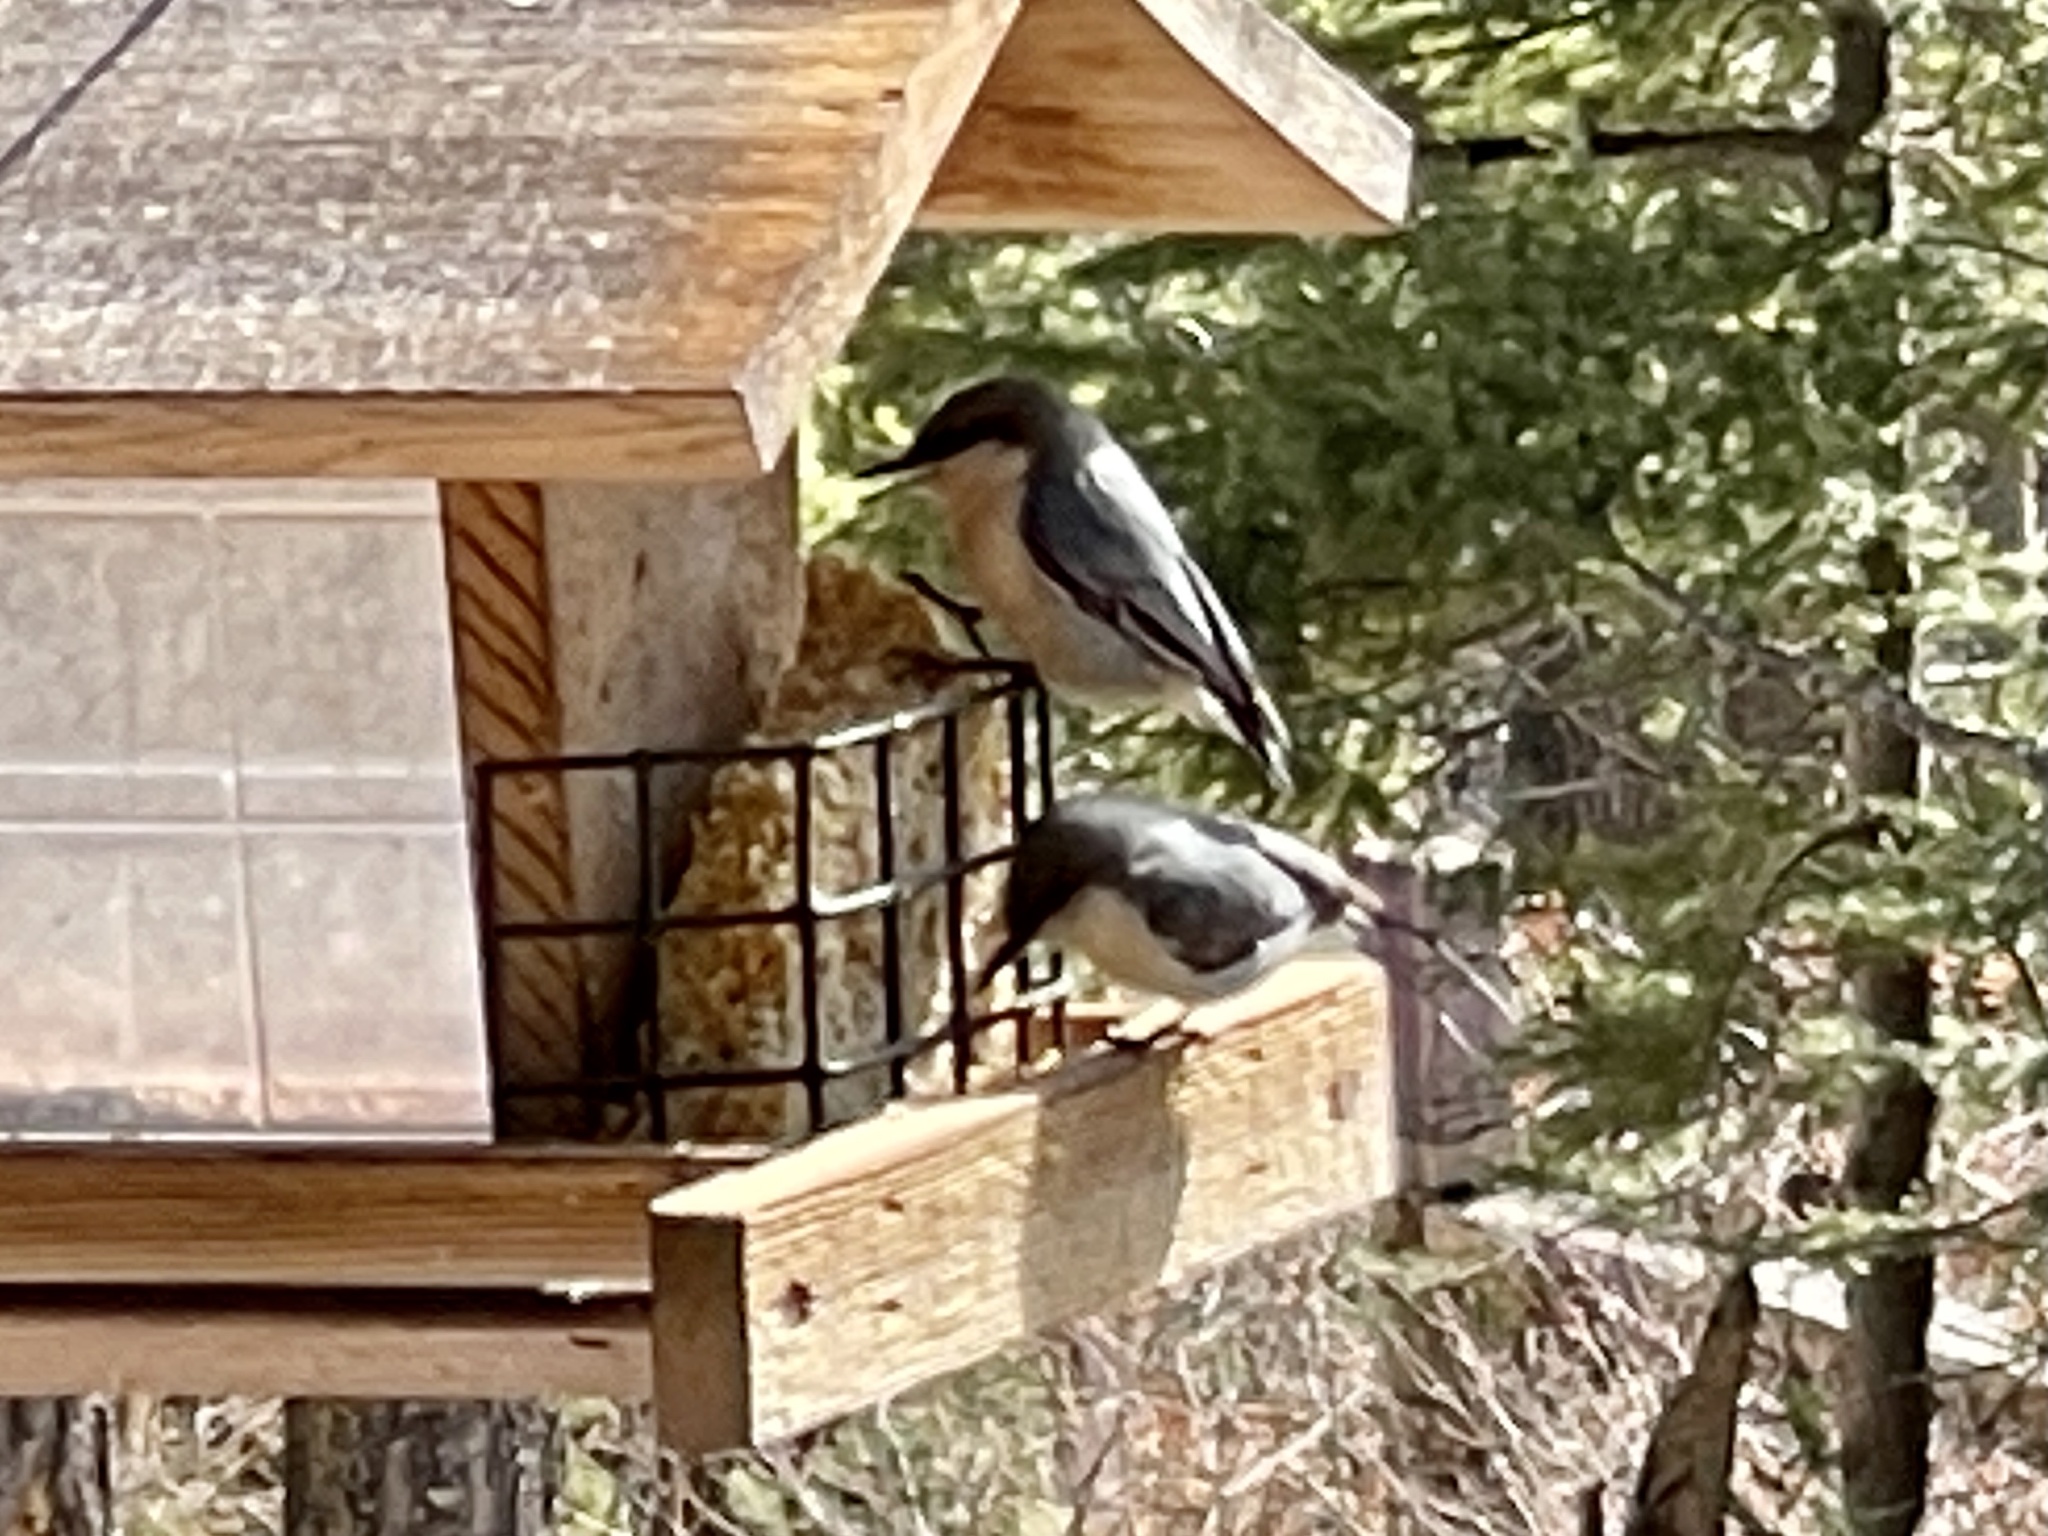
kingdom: Animalia
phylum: Chordata
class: Aves
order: Passeriformes
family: Sittidae
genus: Sitta
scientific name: Sitta pygmaea
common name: Pygmy nuthatch
